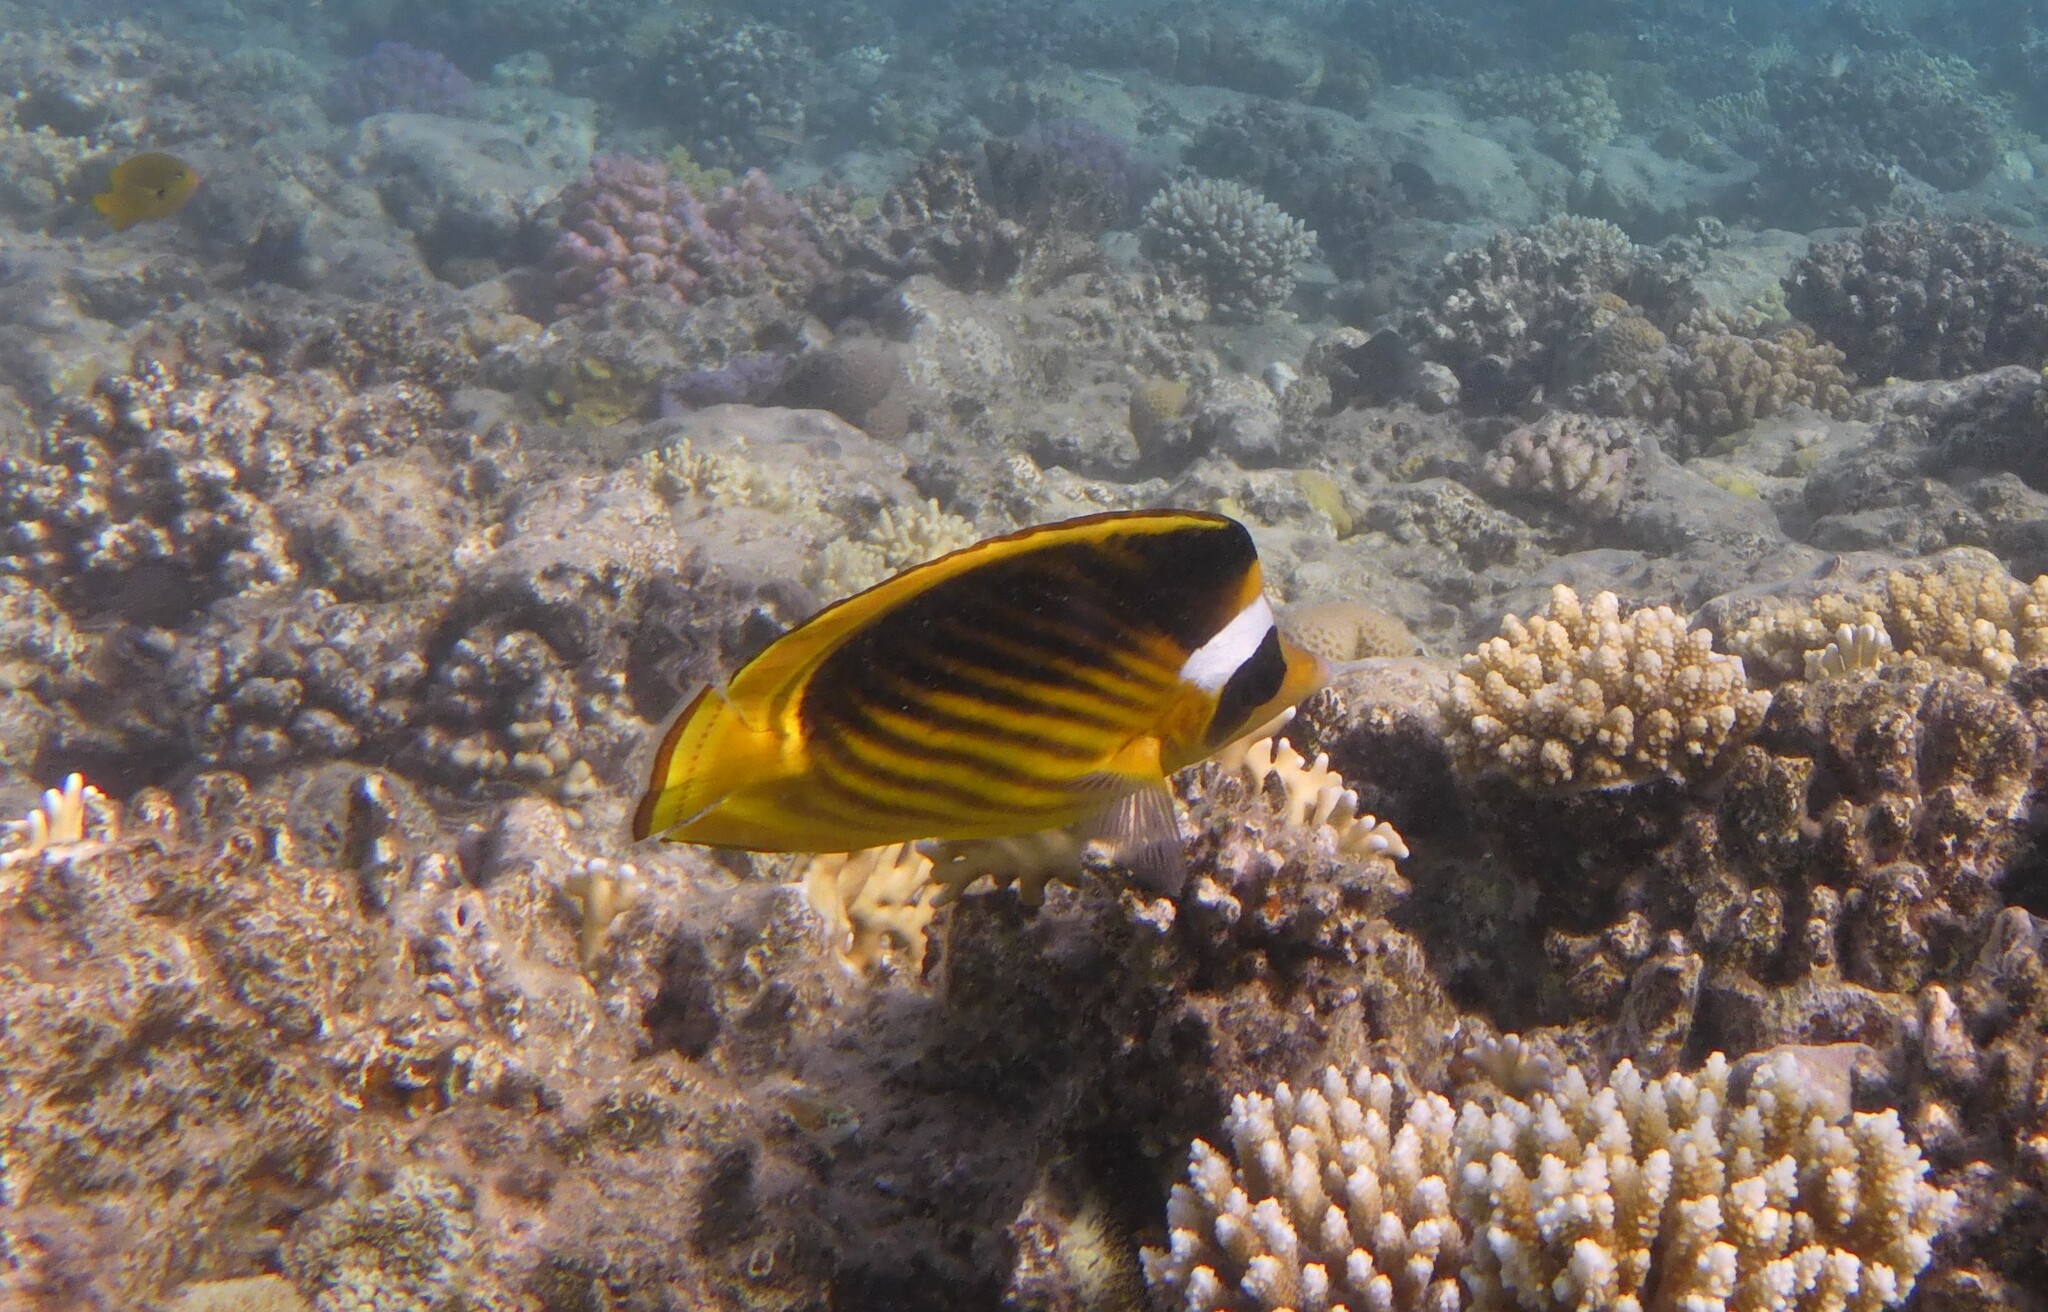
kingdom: Animalia
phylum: Chordata
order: Perciformes
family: Chaetodontidae
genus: Chaetodon
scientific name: Chaetodon fasciatus
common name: Diagonal butterflyfish
